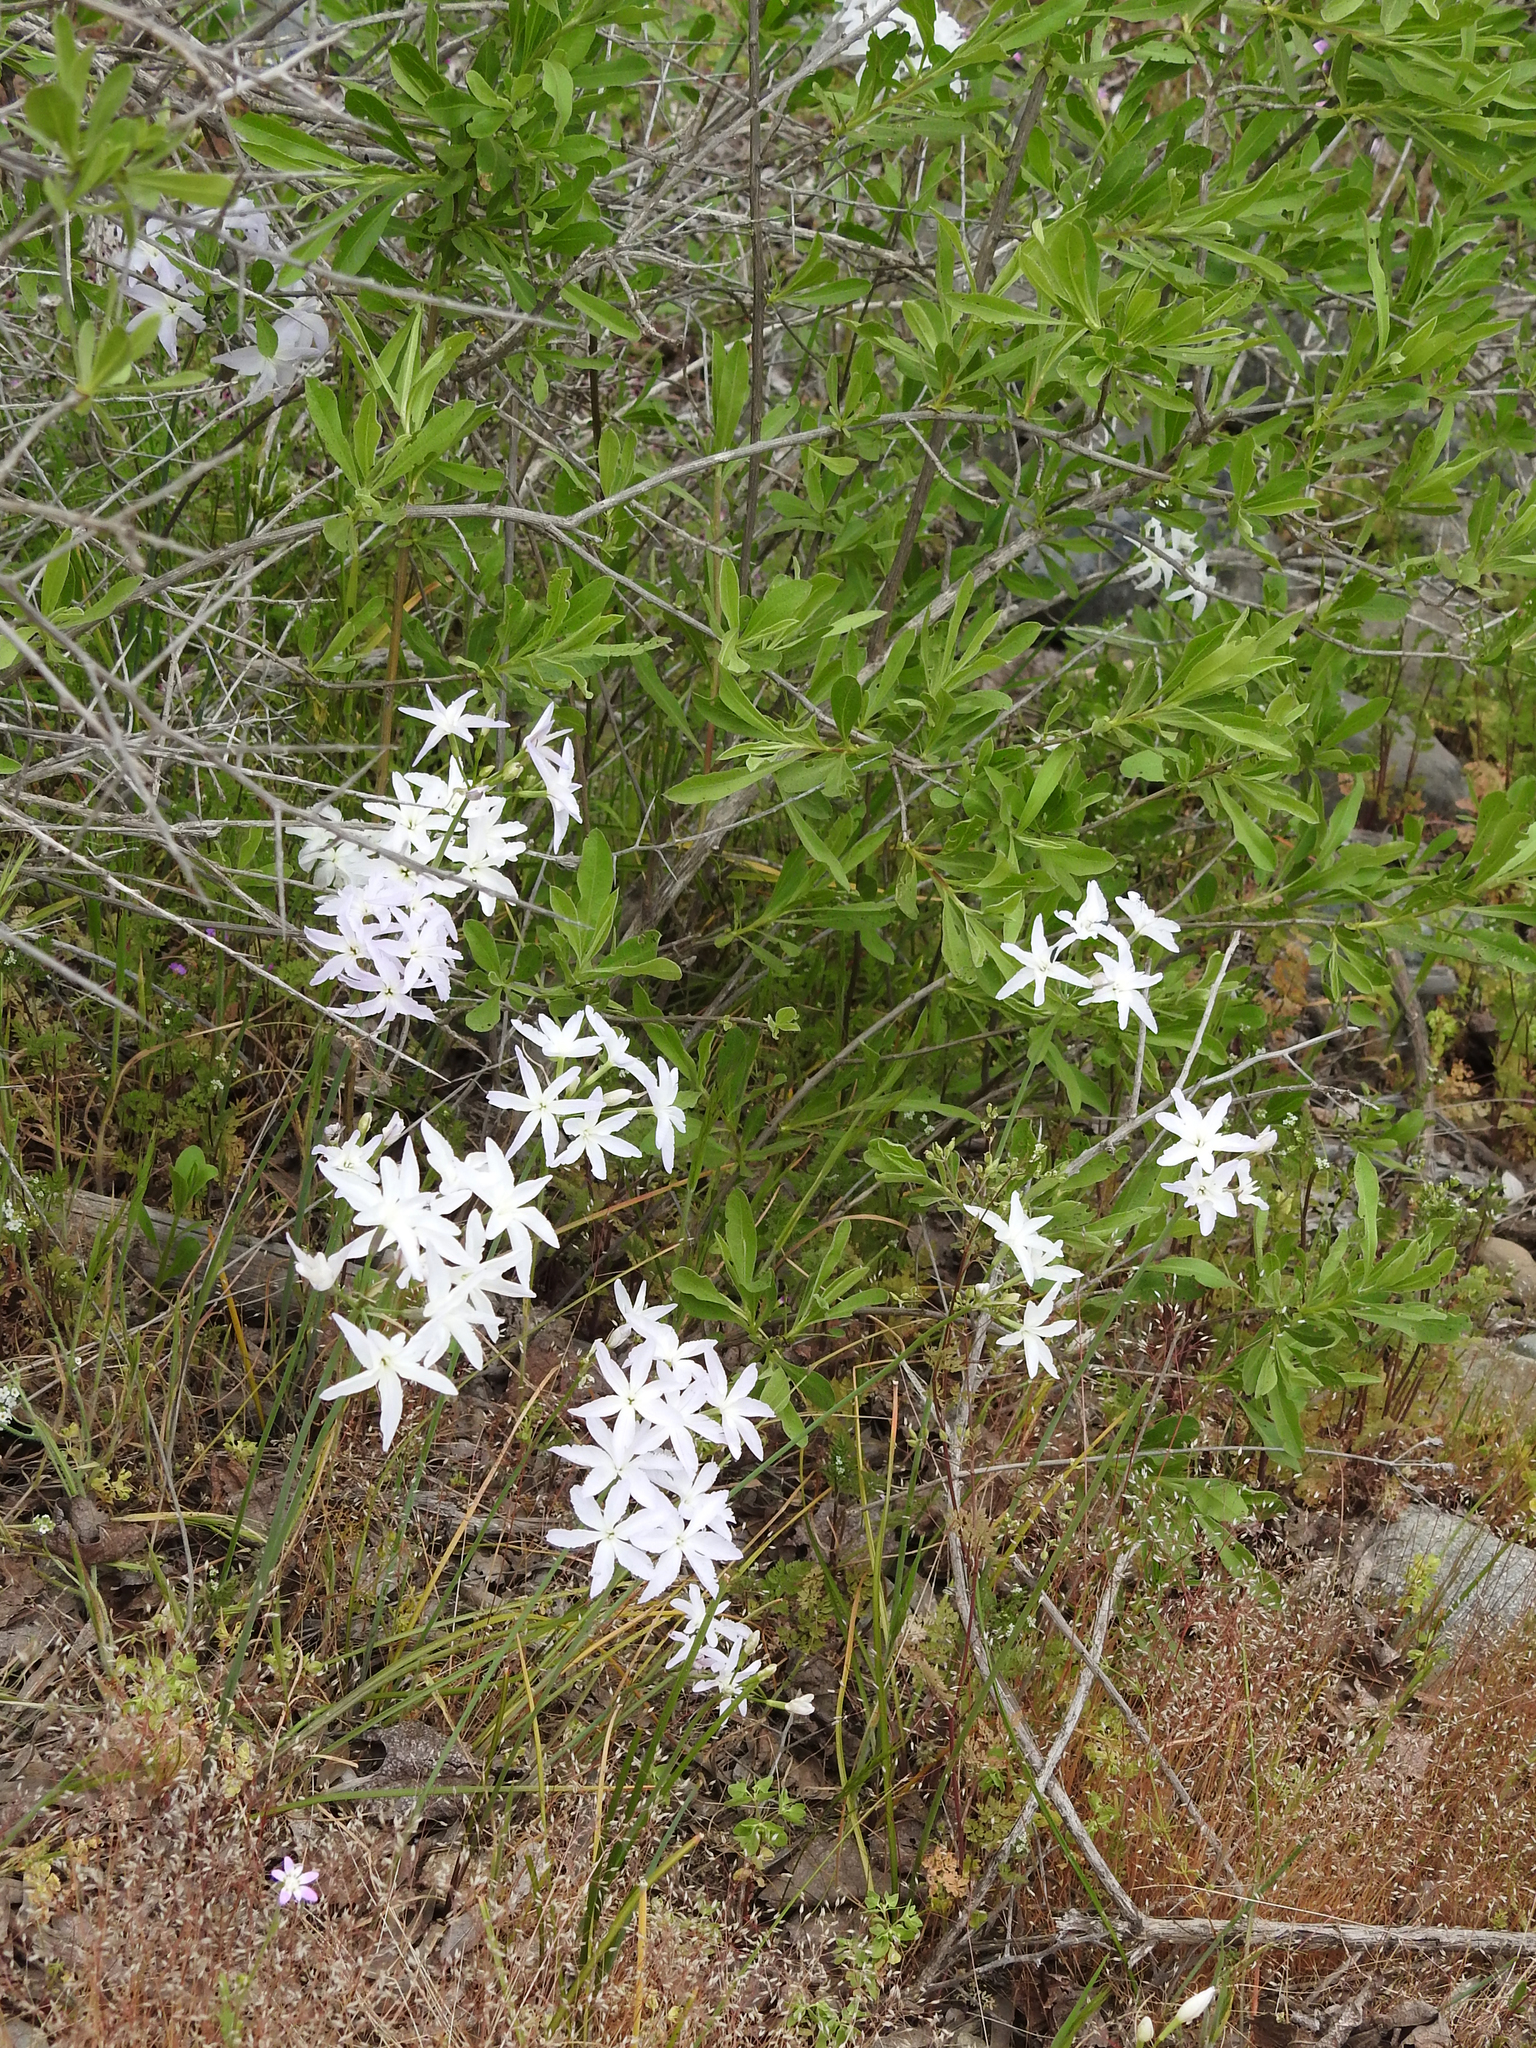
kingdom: Plantae
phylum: Tracheophyta
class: Liliopsida
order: Asparagales
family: Amaryllidaceae
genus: Leucocoryne
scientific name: Leucocoryne ixioides
